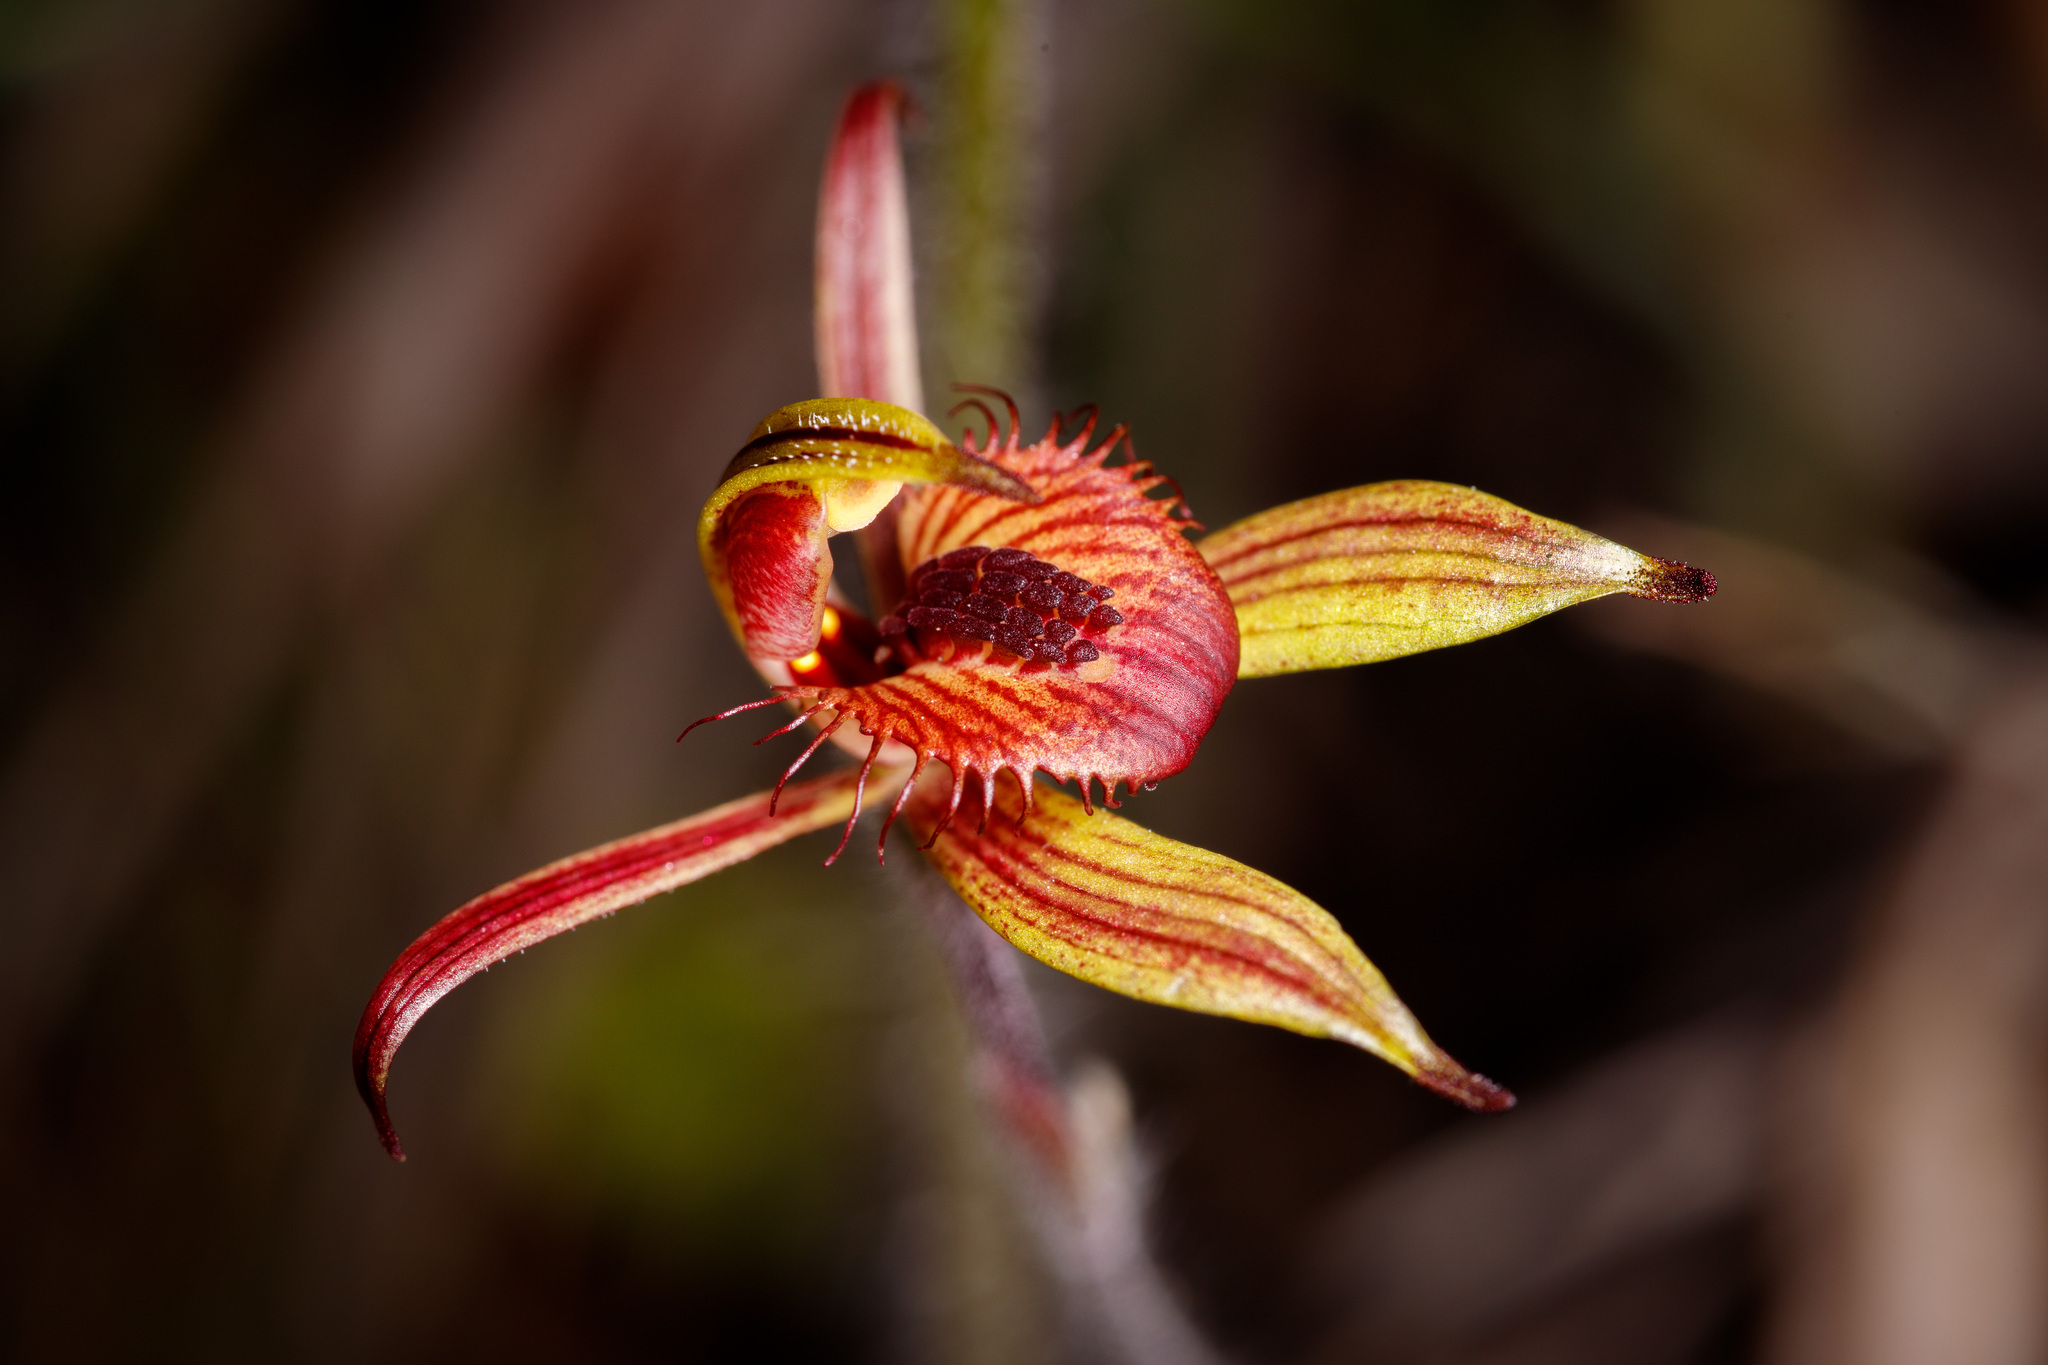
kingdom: Plantae
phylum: Tracheophyta
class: Liliopsida
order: Asparagales
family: Orchidaceae
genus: Caladenia
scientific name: Caladenia discoidea
